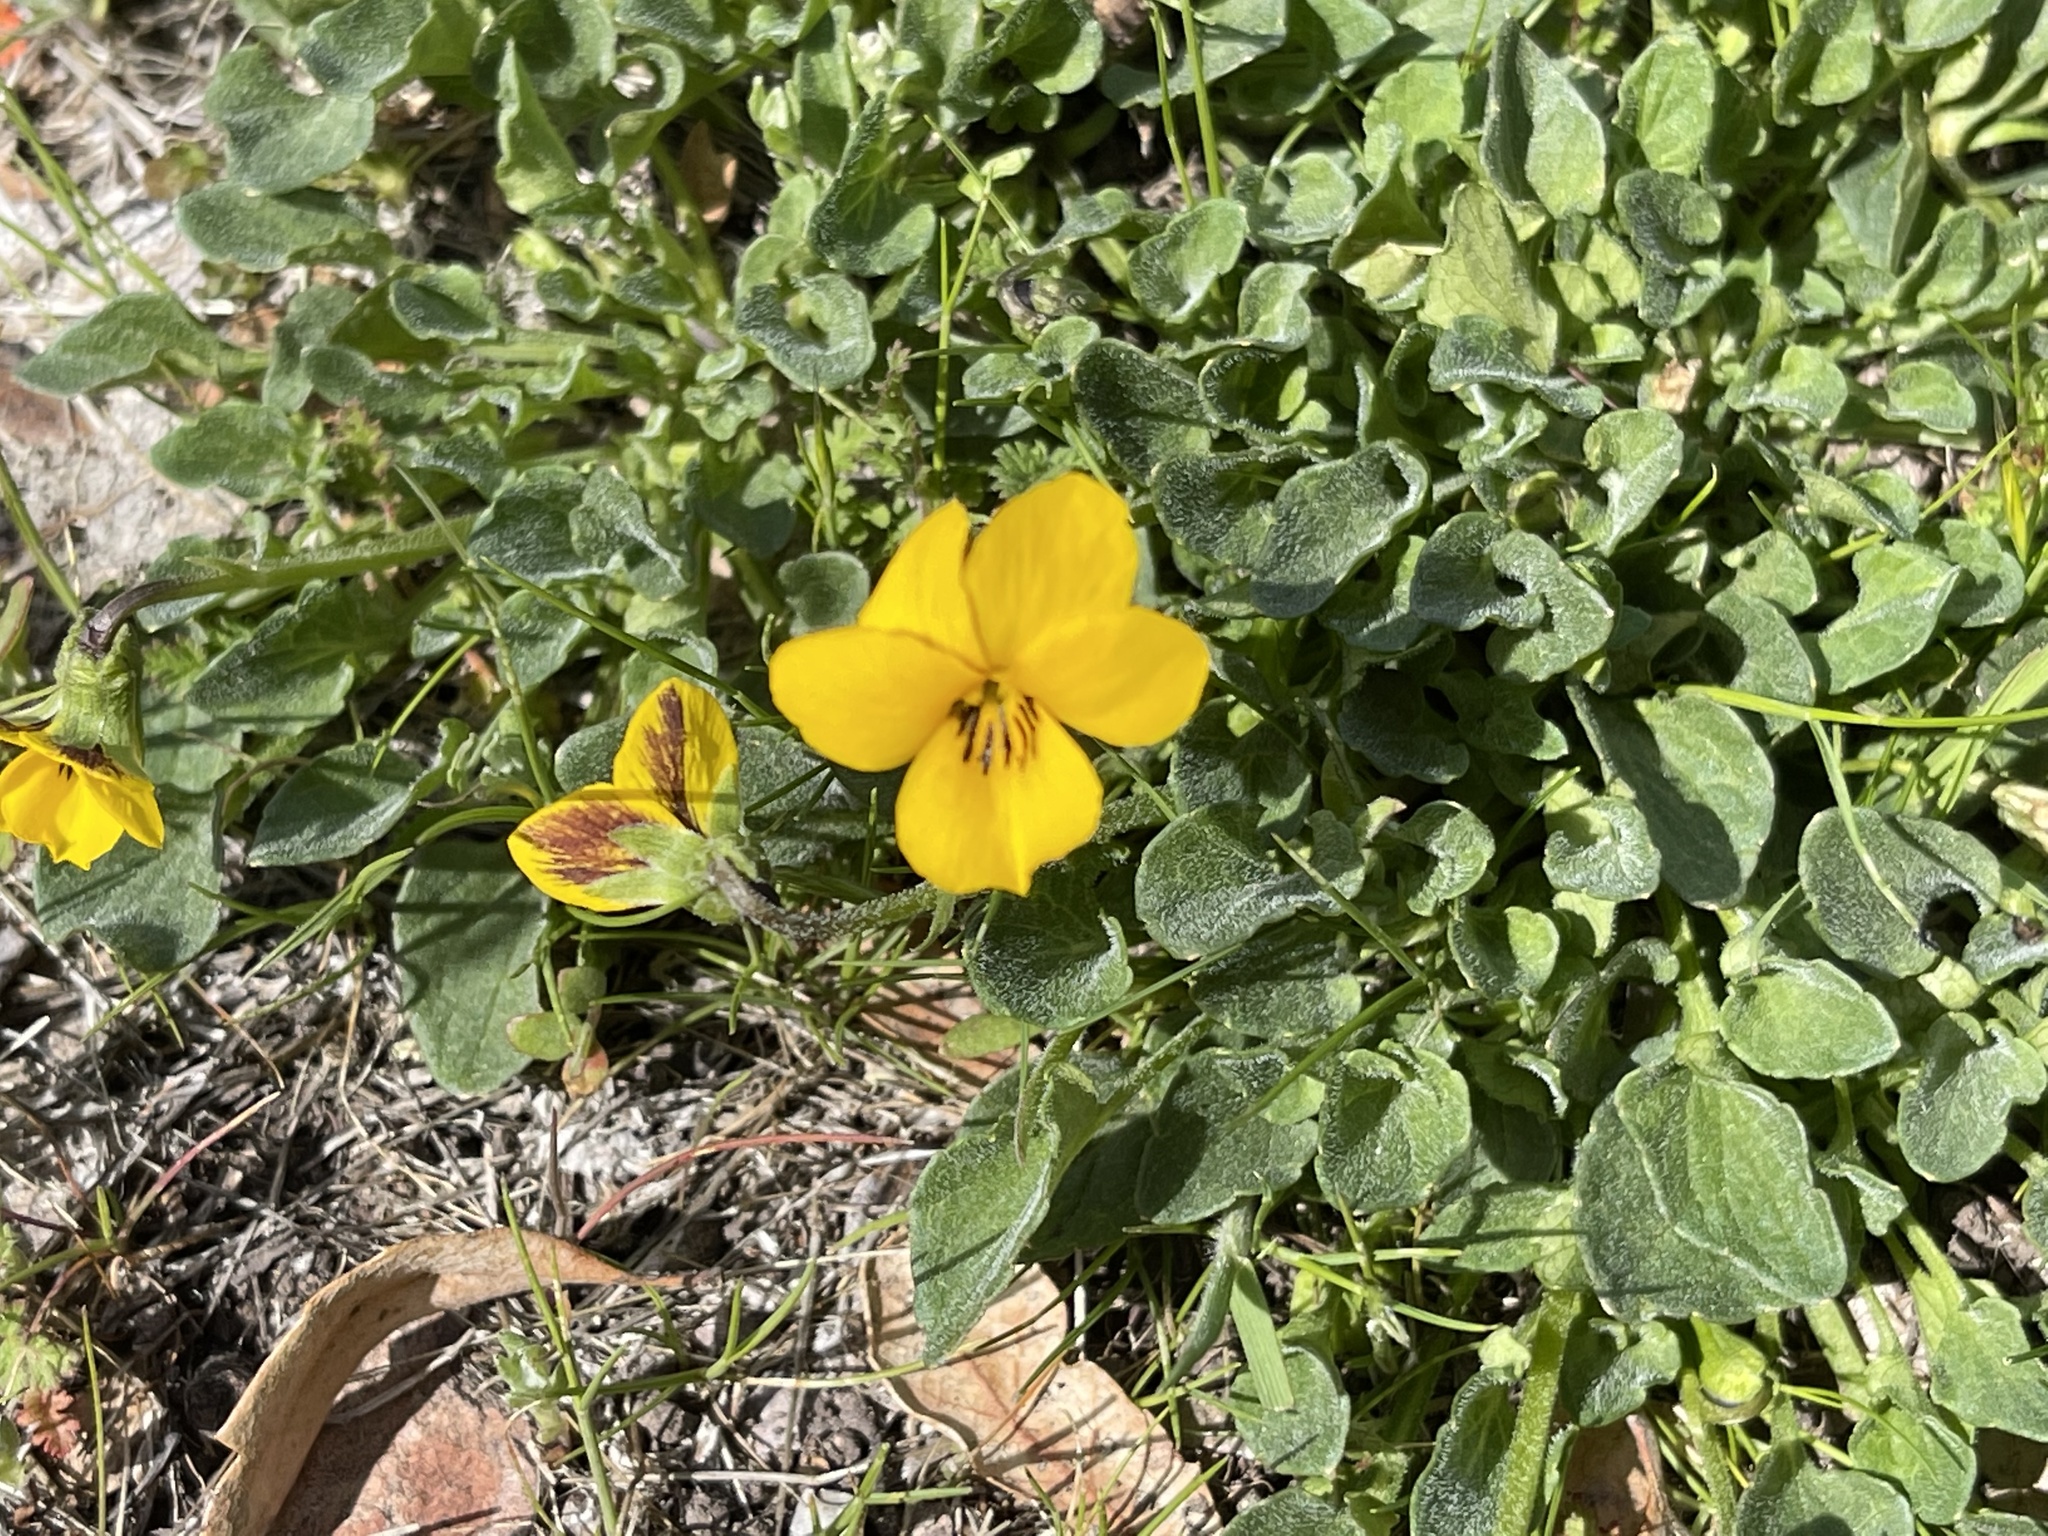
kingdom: Plantae
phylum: Tracheophyta
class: Magnoliopsida
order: Malpighiales
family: Violaceae
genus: Viola
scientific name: Viola pedunculata
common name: California golden violet
